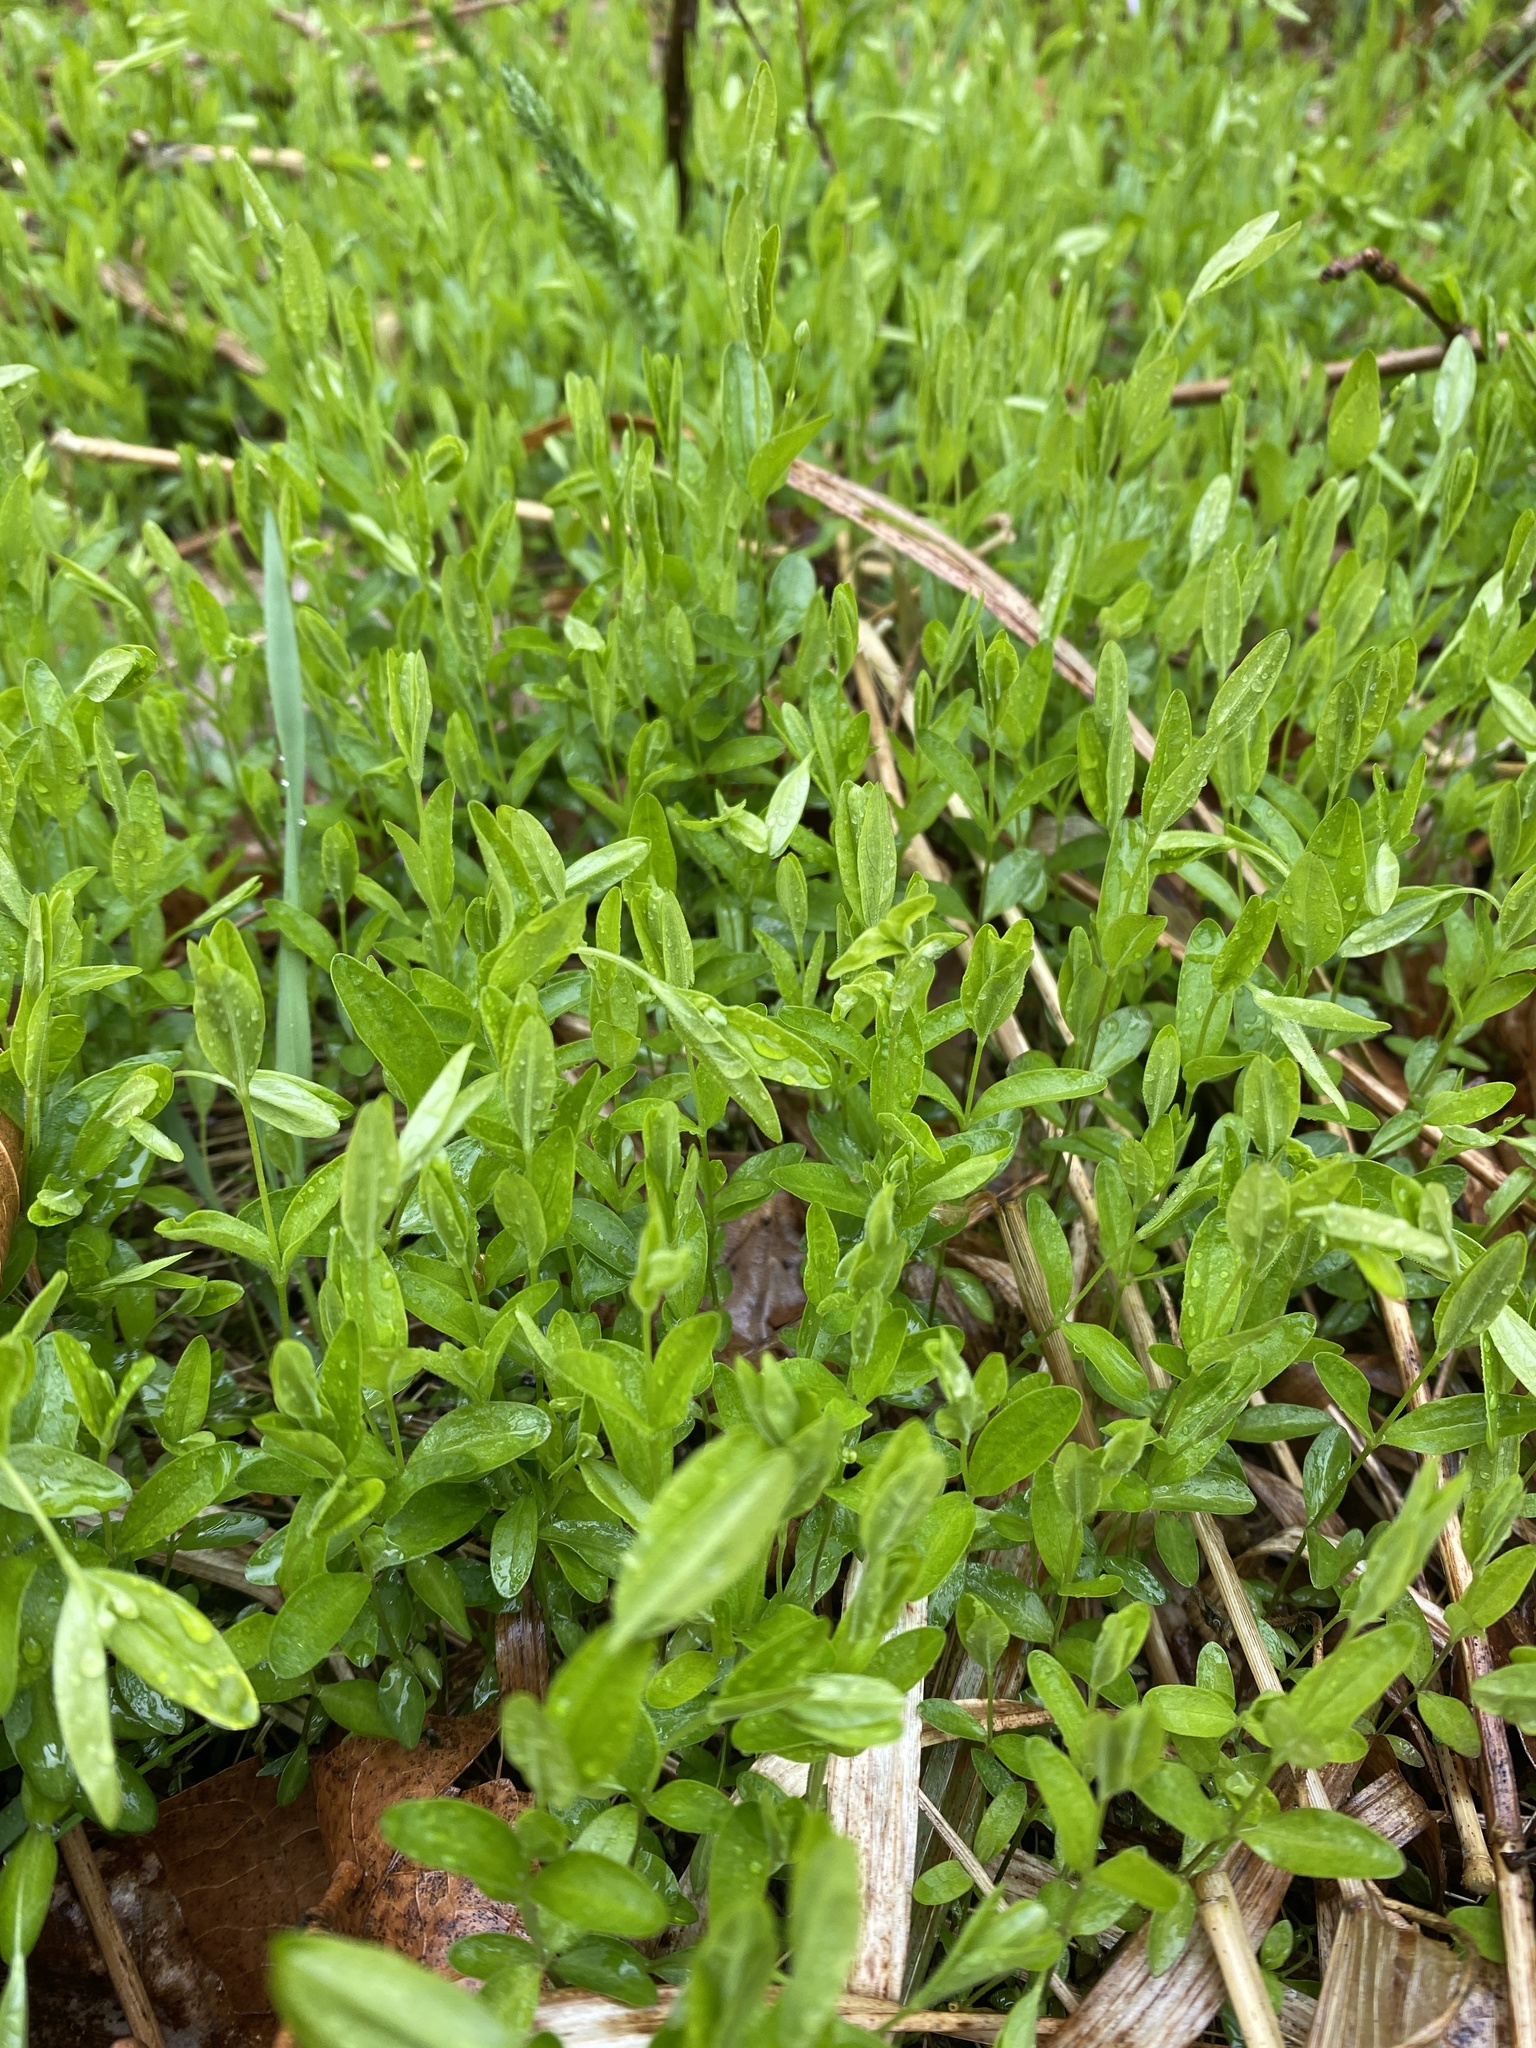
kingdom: Plantae
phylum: Tracheophyta
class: Magnoliopsida
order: Caryophyllales
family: Caryophyllaceae
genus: Moehringia
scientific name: Moehringia lateriflora
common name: Blunt-leaved sandwort
